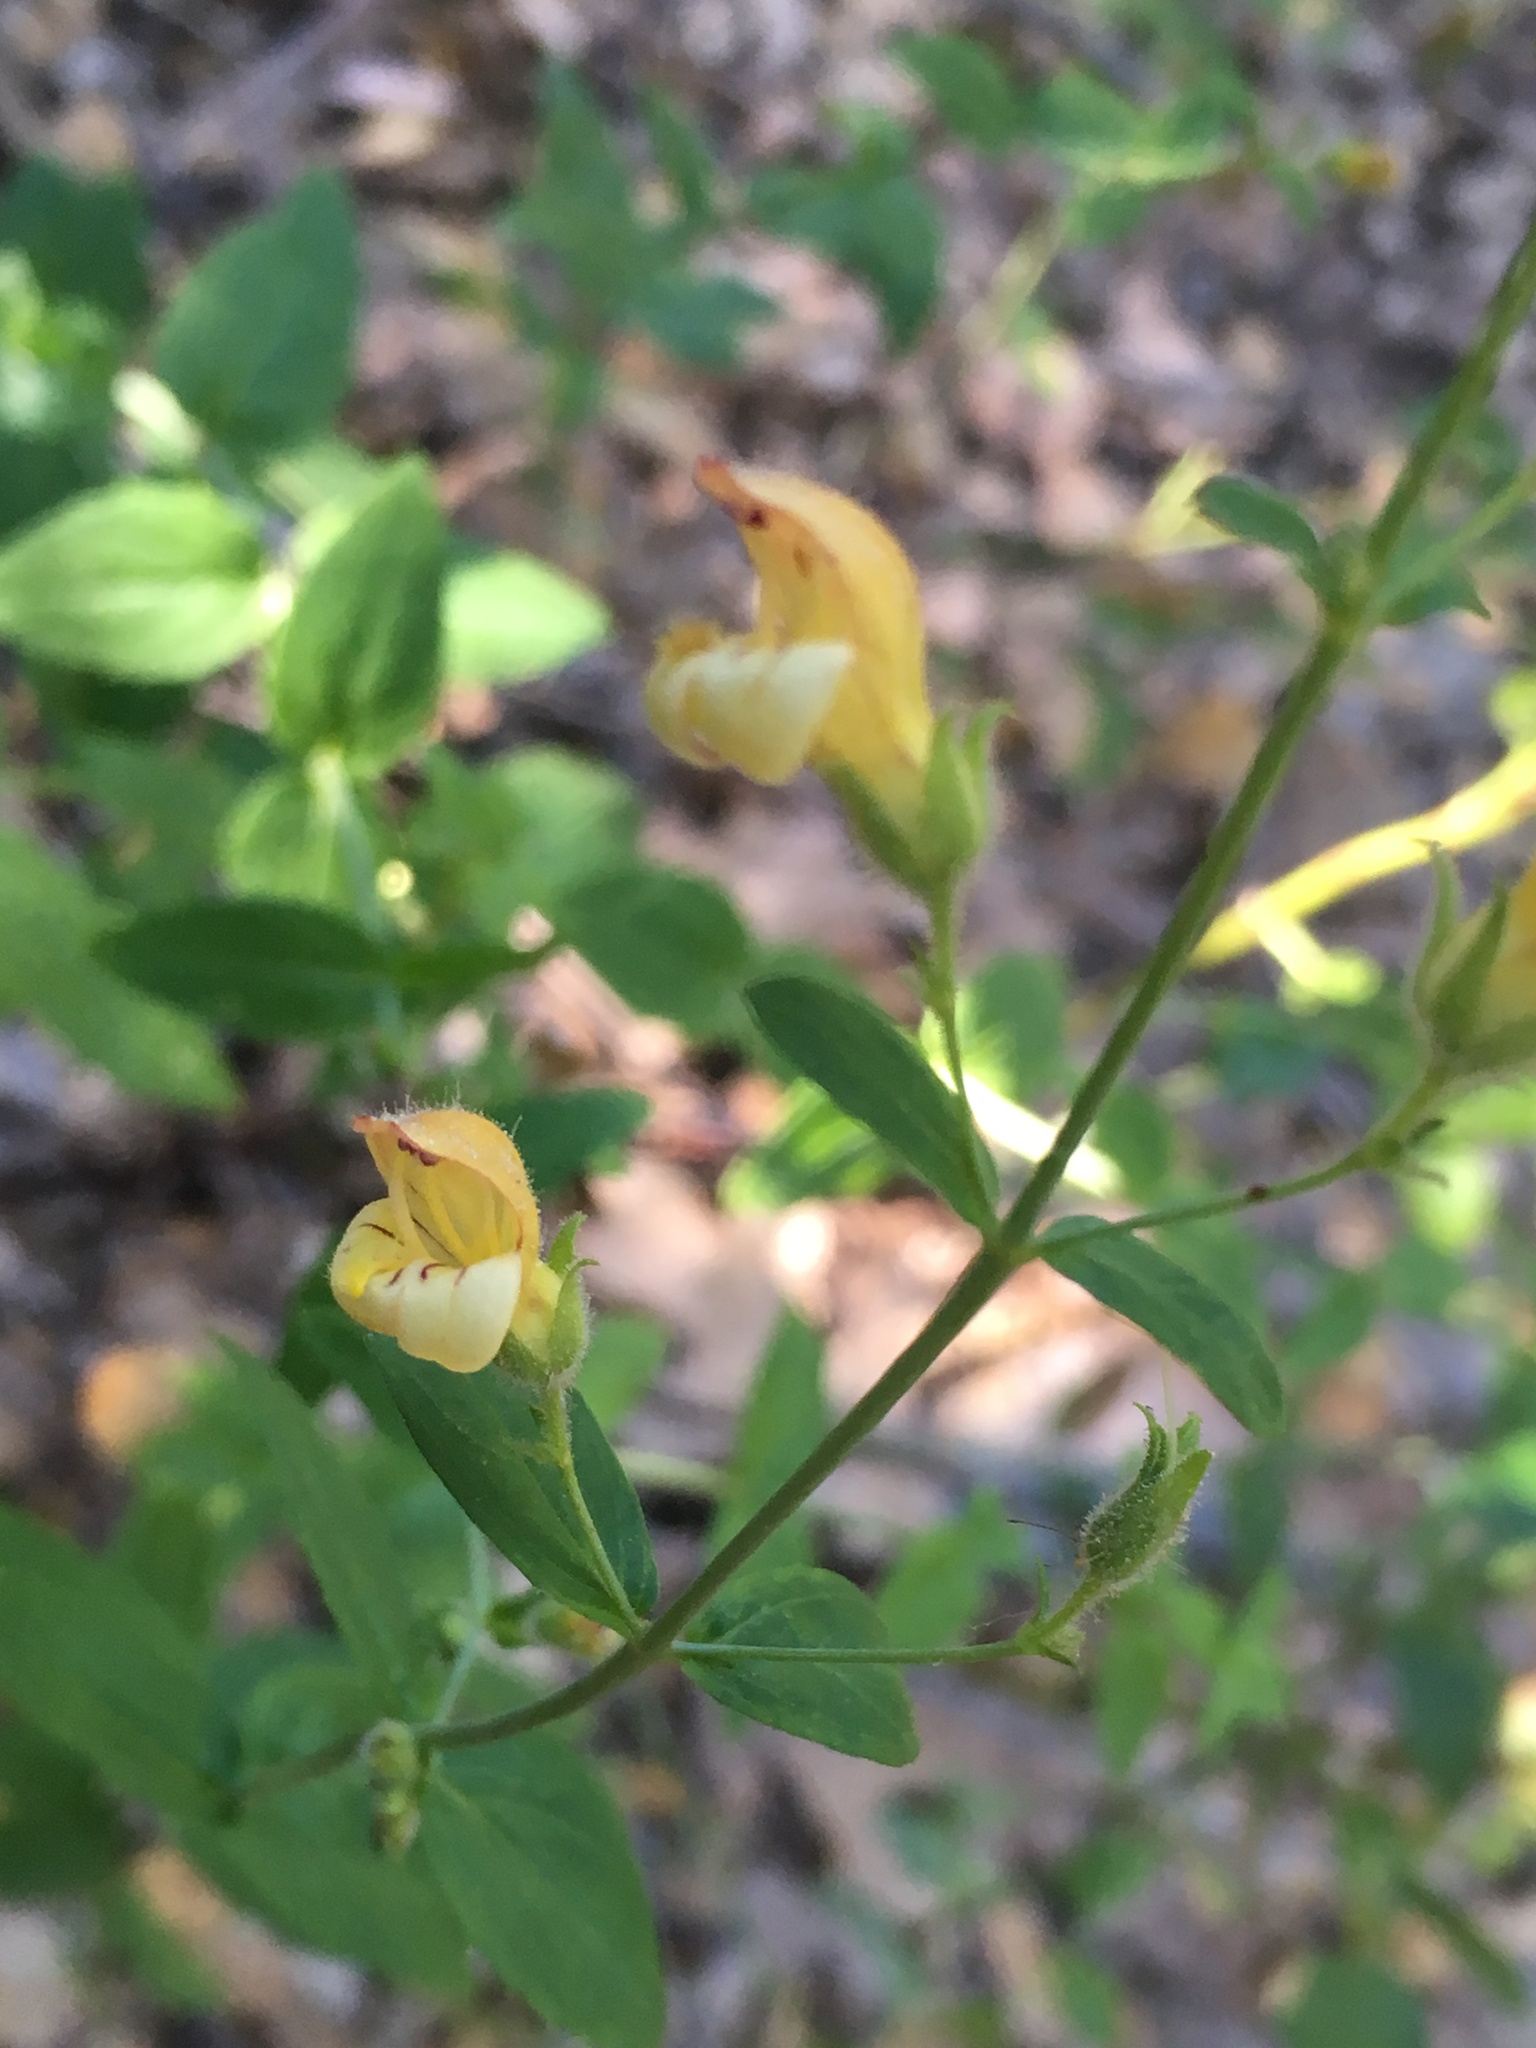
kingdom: Plantae
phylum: Tracheophyta
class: Magnoliopsida
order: Lamiales
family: Plantaginaceae
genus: Keckiella
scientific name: Keckiella lemmonii
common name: Lemmon's keckiella
